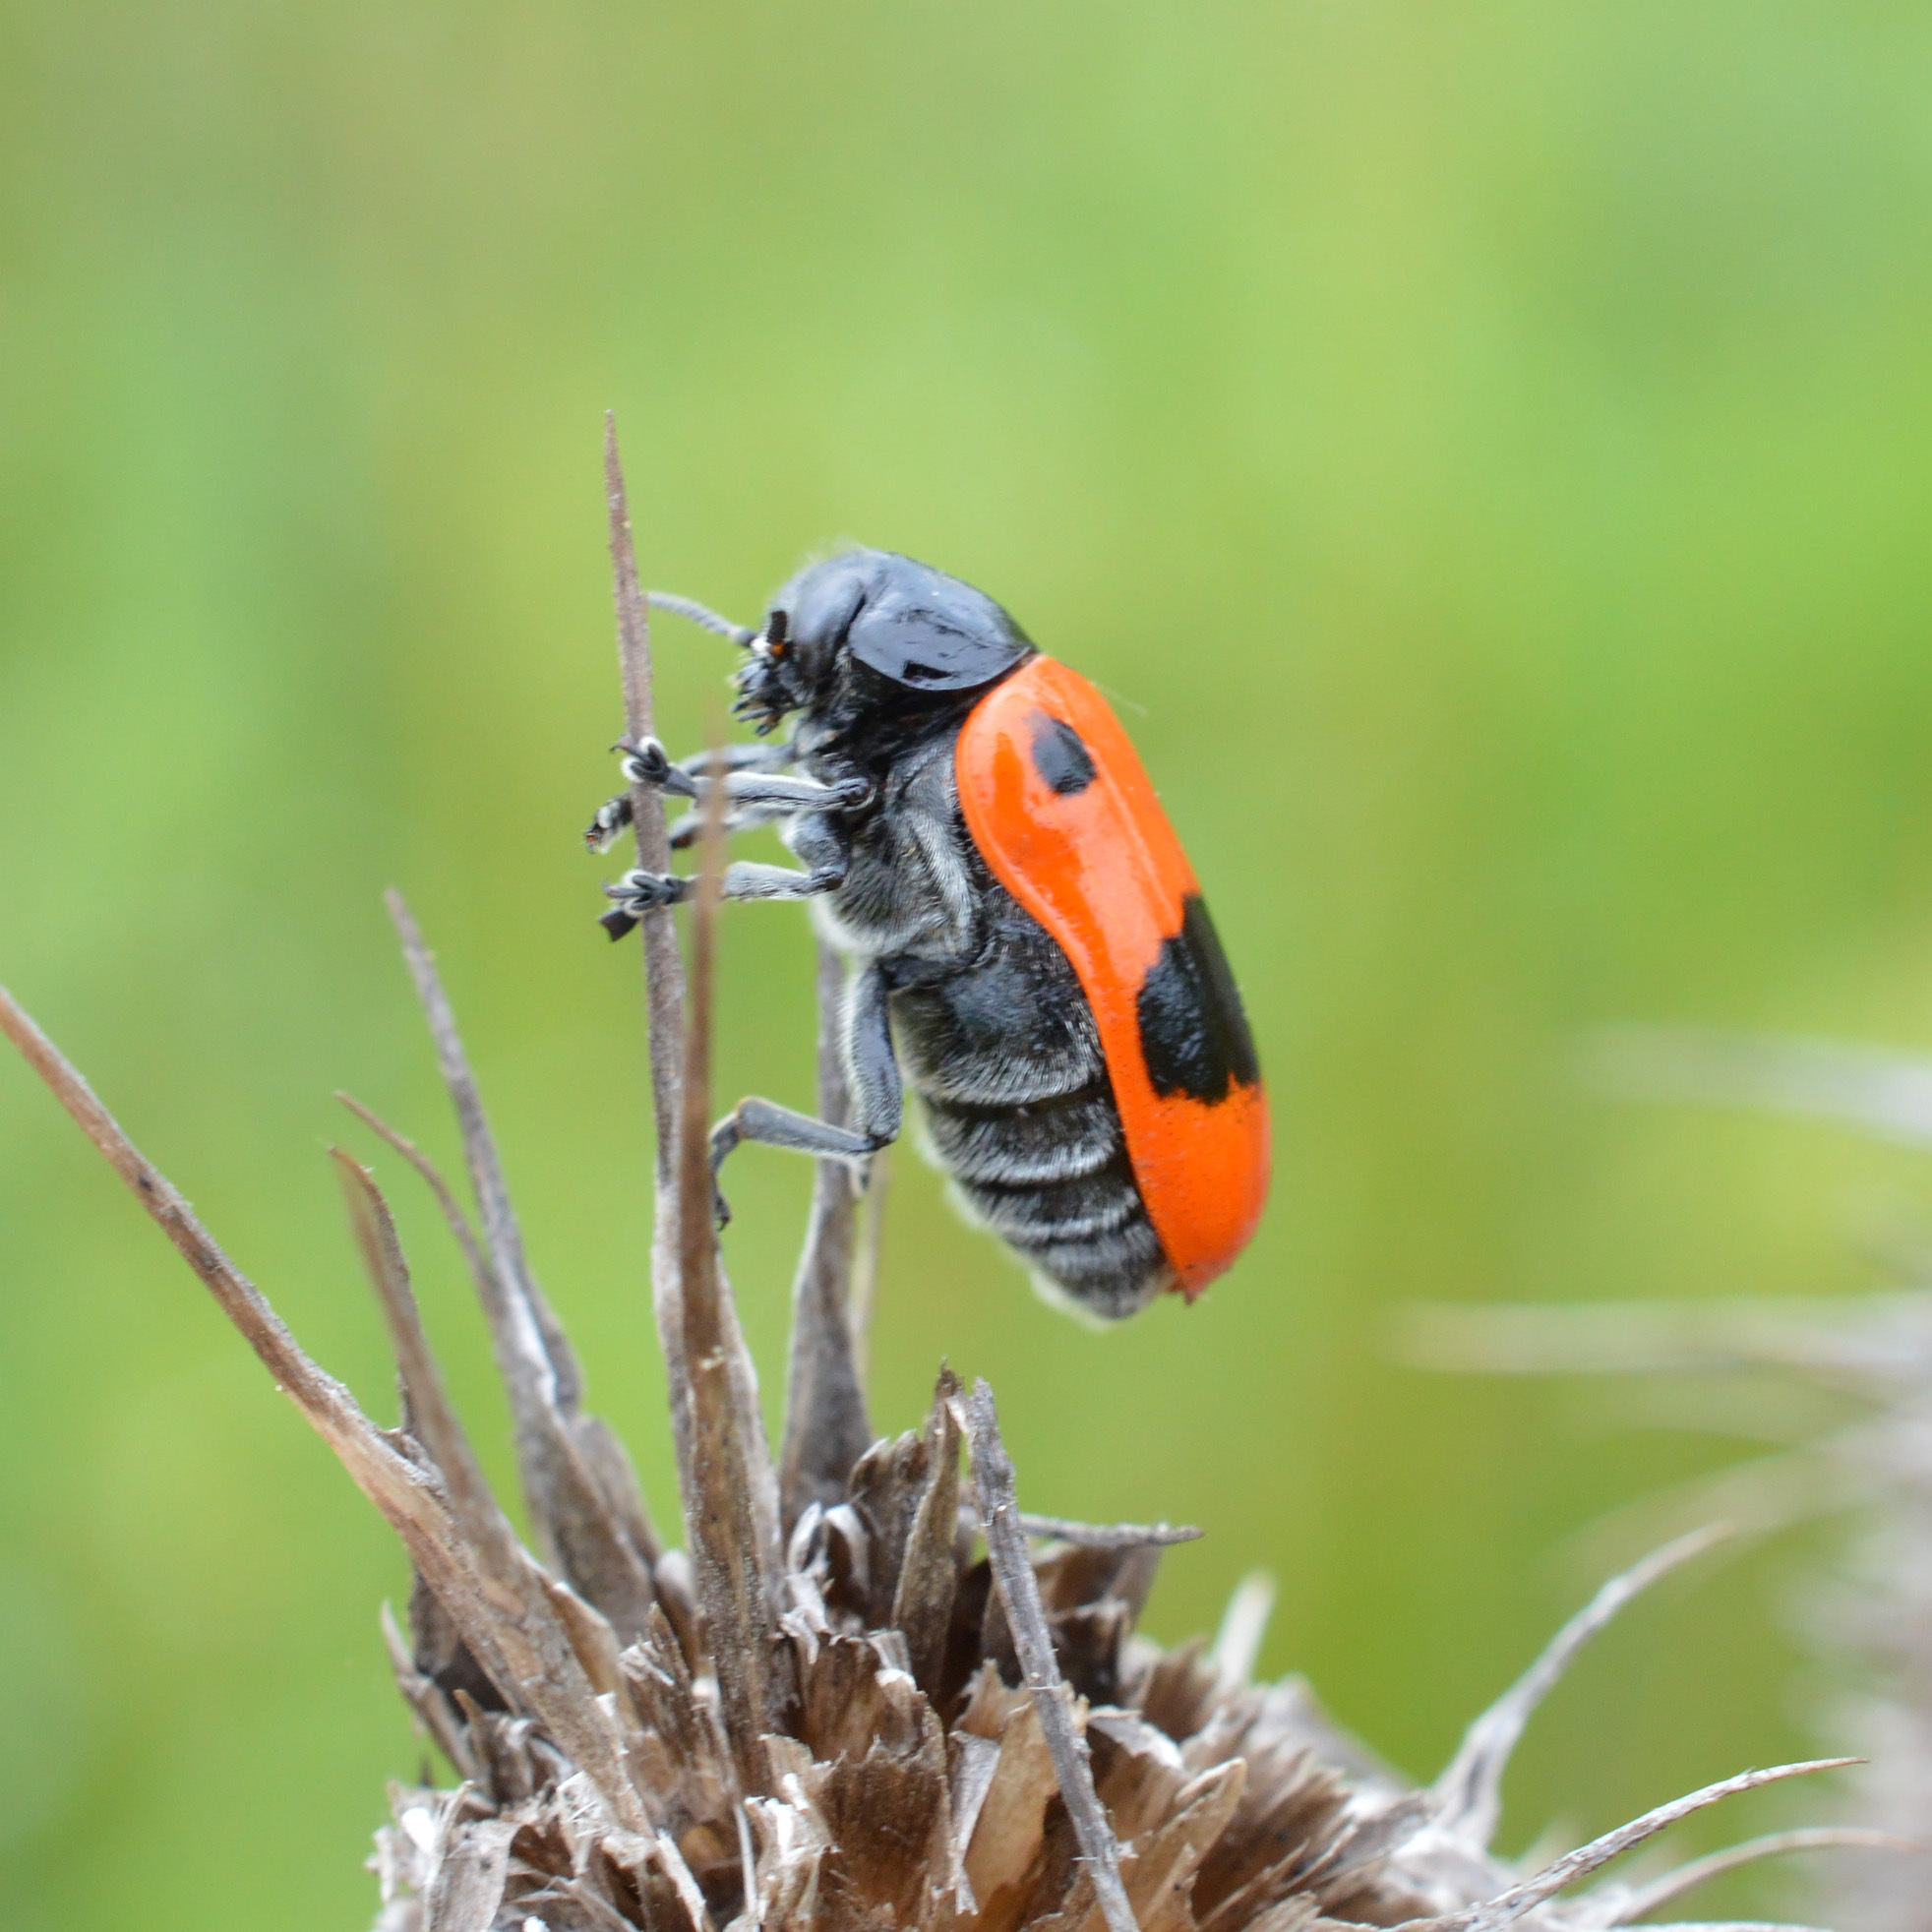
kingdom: Animalia
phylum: Arthropoda
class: Insecta
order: Coleoptera
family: Chrysomelidae
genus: Clytra
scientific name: Clytra laeviuscula
